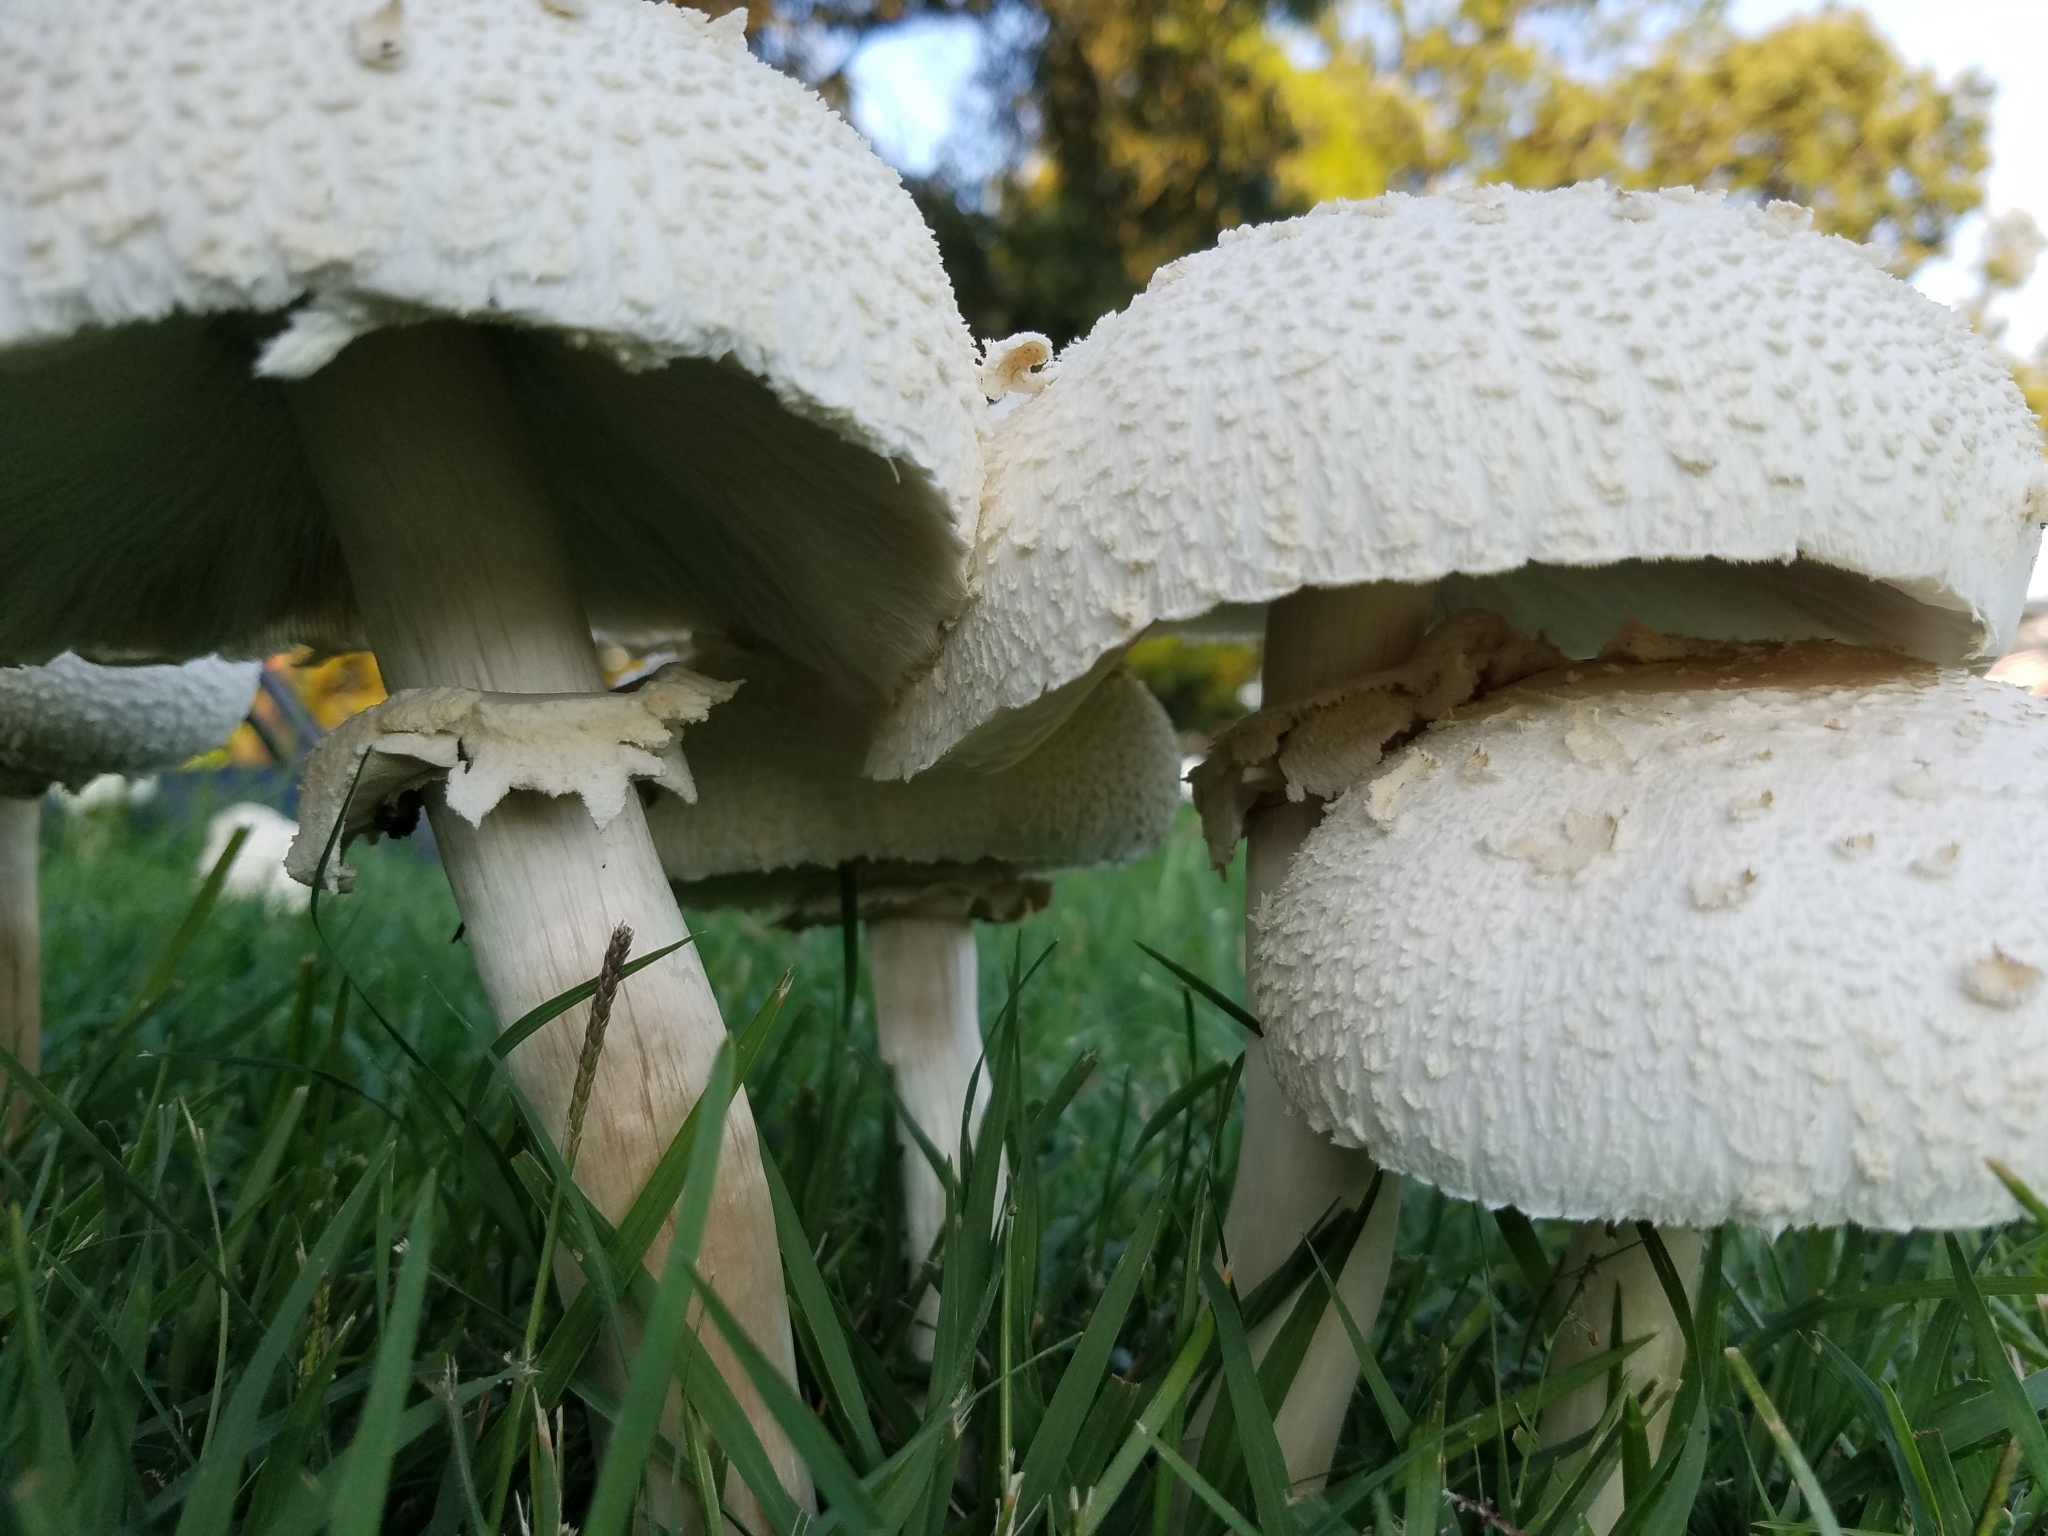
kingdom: Fungi
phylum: Basidiomycota
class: Agaricomycetes
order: Agaricales
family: Agaricaceae
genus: Chlorophyllum
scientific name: Chlorophyllum molybdites
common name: False parasol
